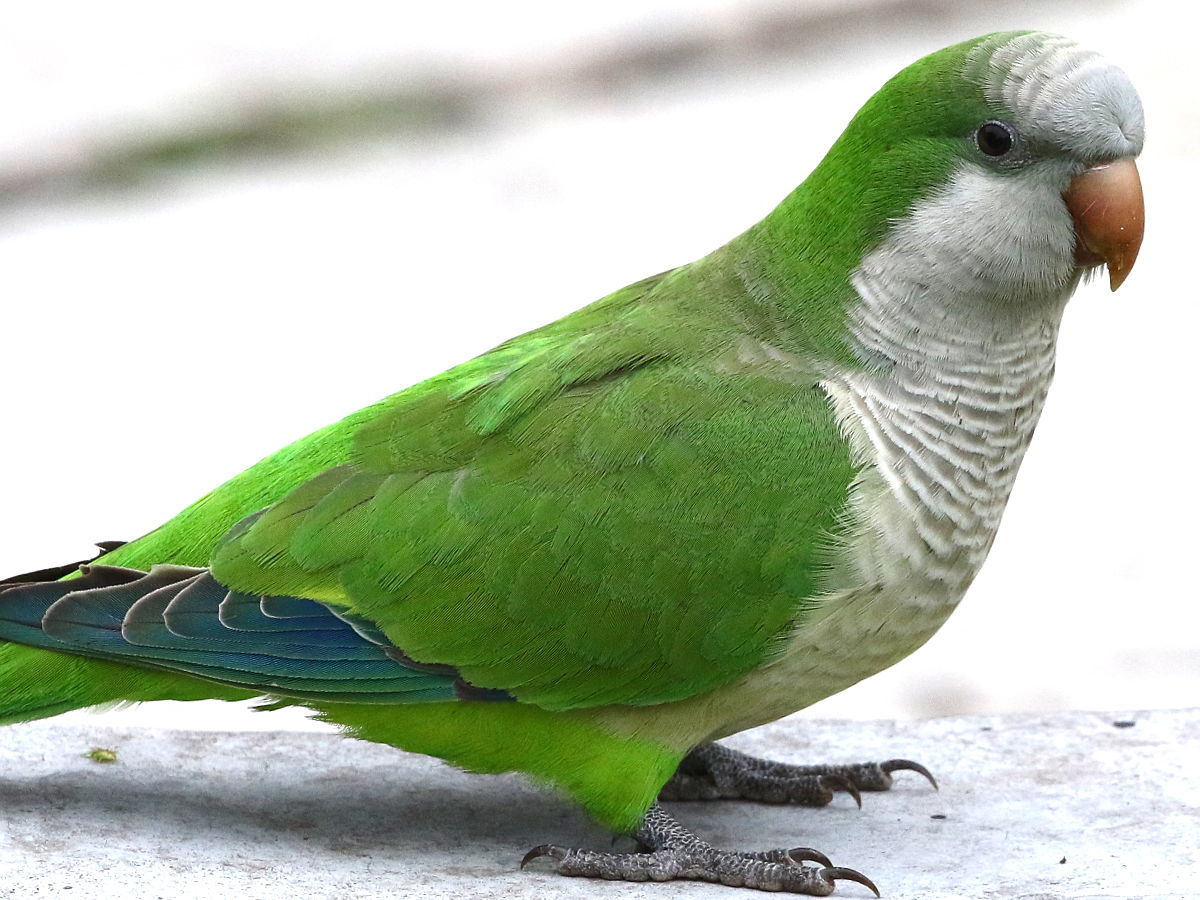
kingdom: Animalia
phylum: Chordata
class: Aves
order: Psittaciformes
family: Psittacidae
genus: Myiopsitta
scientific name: Myiopsitta monachus
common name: Monk parakeet
